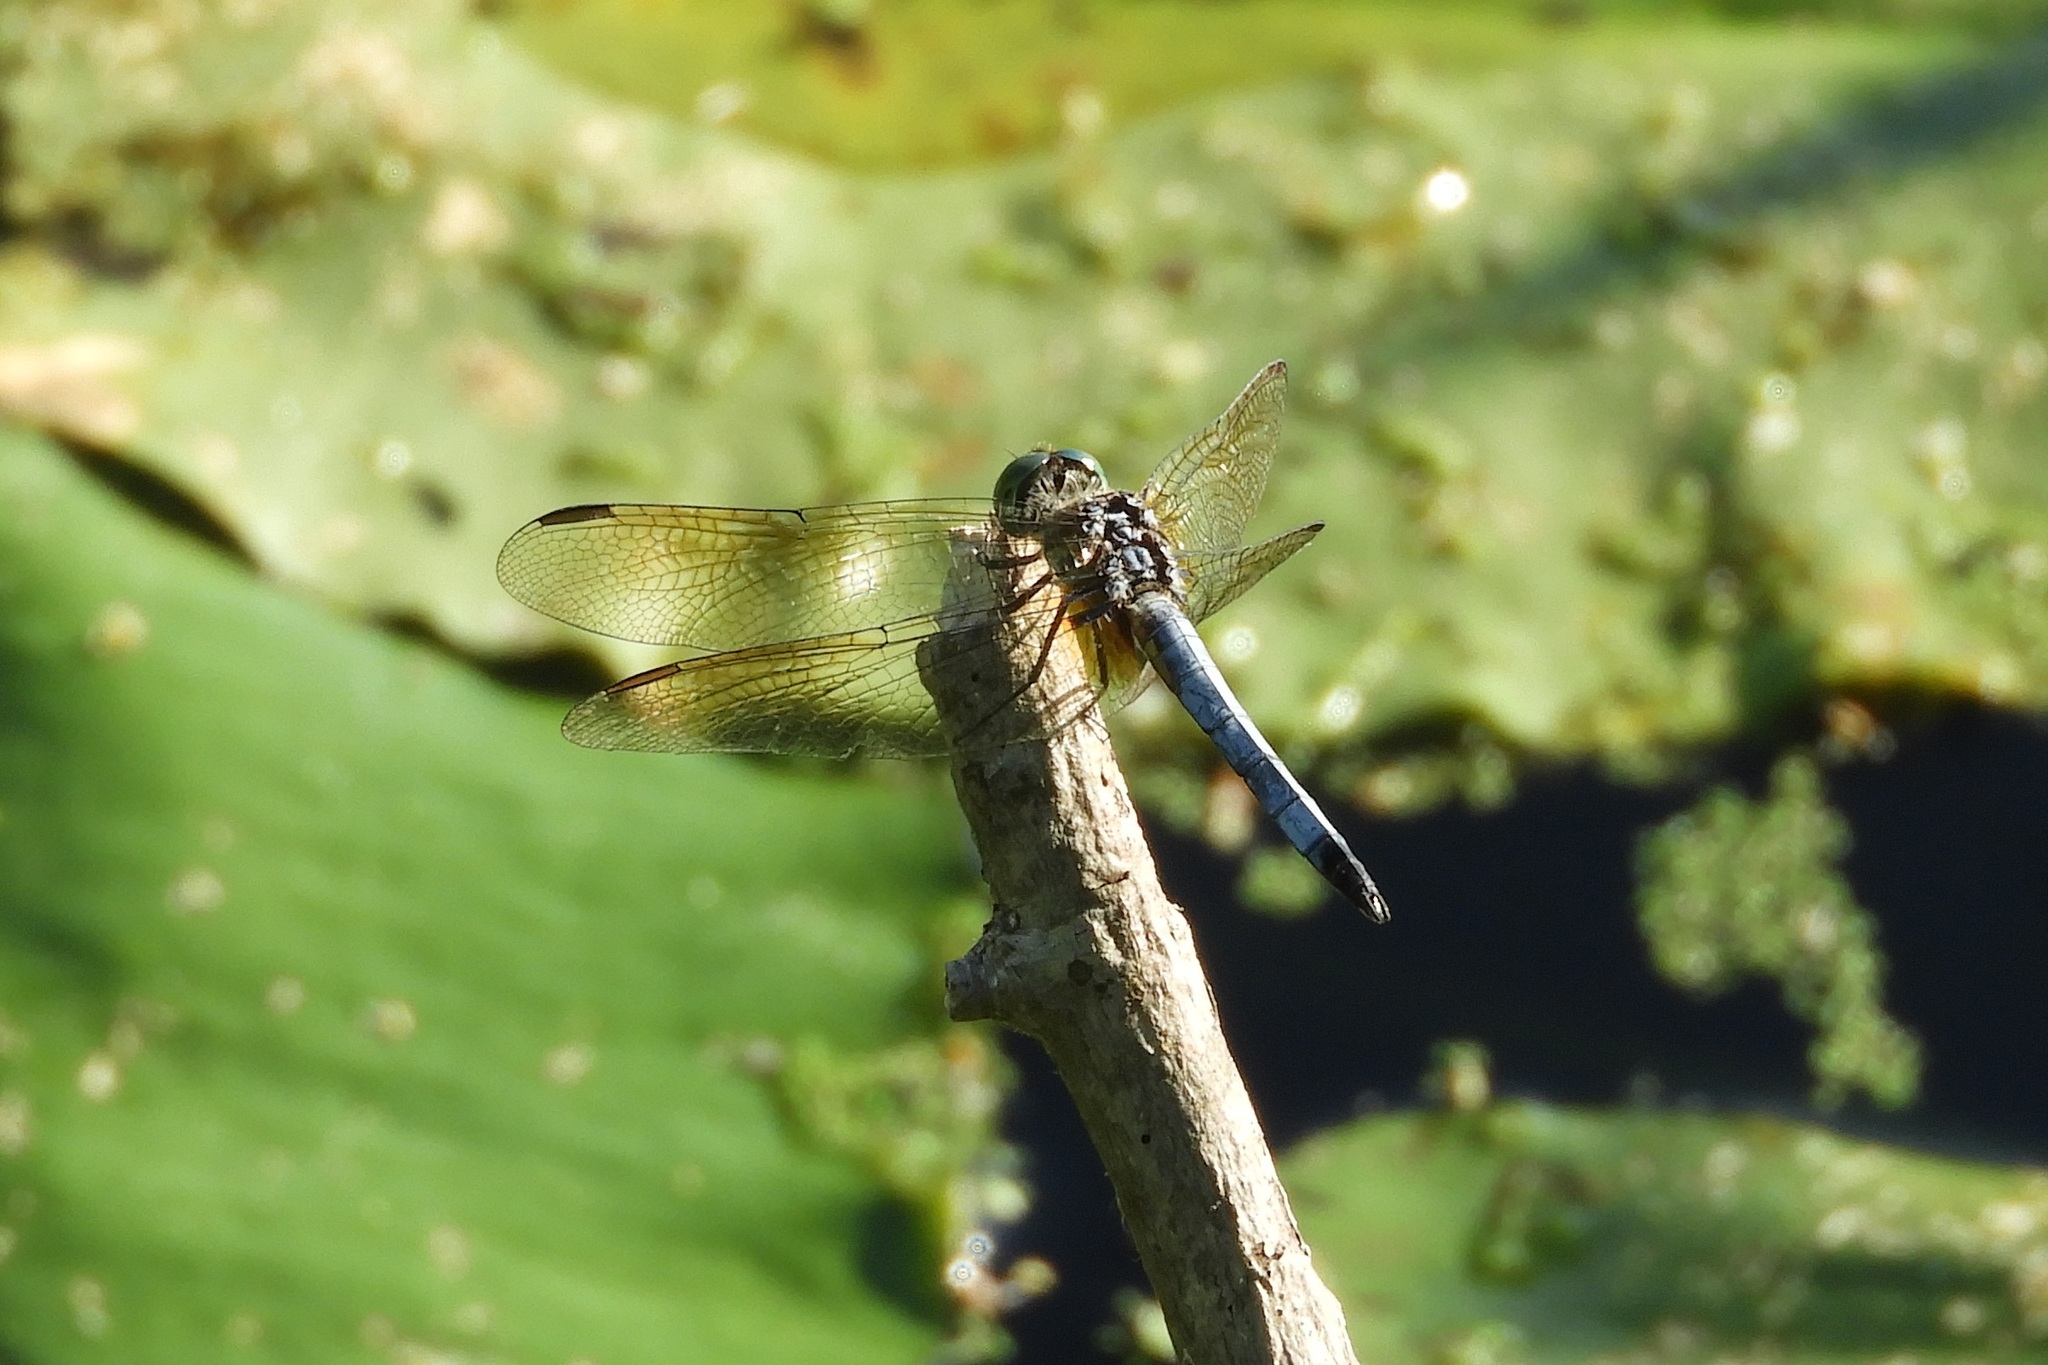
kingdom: Animalia
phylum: Arthropoda
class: Insecta
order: Odonata
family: Libellulidae
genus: Pachydiplax
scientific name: Pachydiplax longipennis
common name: Blue dasher
